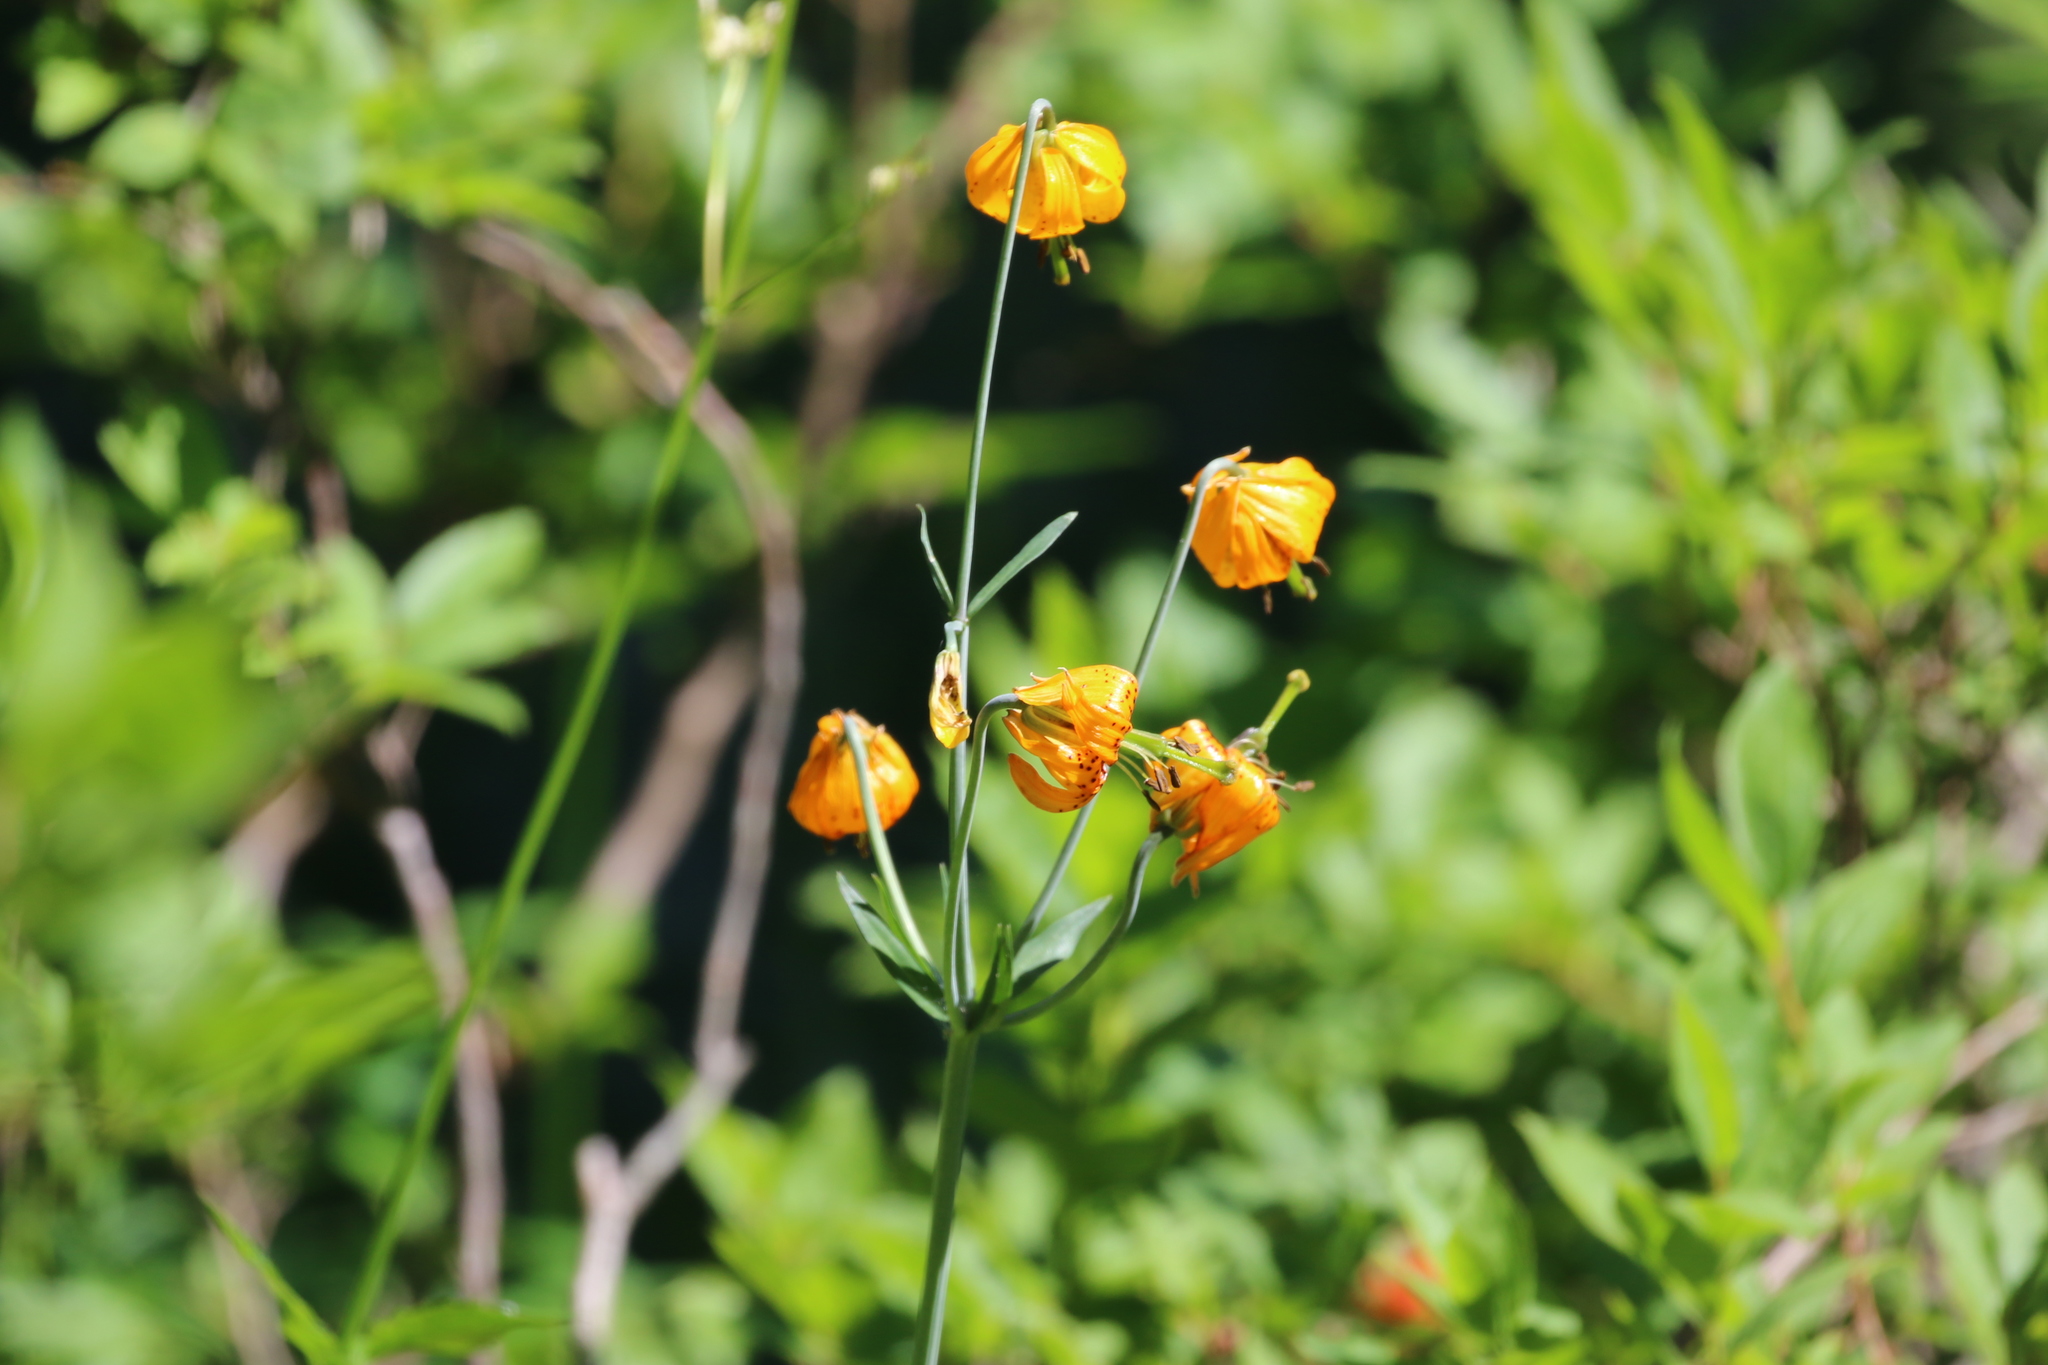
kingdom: Plantae
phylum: Tracheophyta
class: Liliopsida
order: Liliales
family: Liliaceae
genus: Lilium
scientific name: Lilium columbianum
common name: Columbia lily
